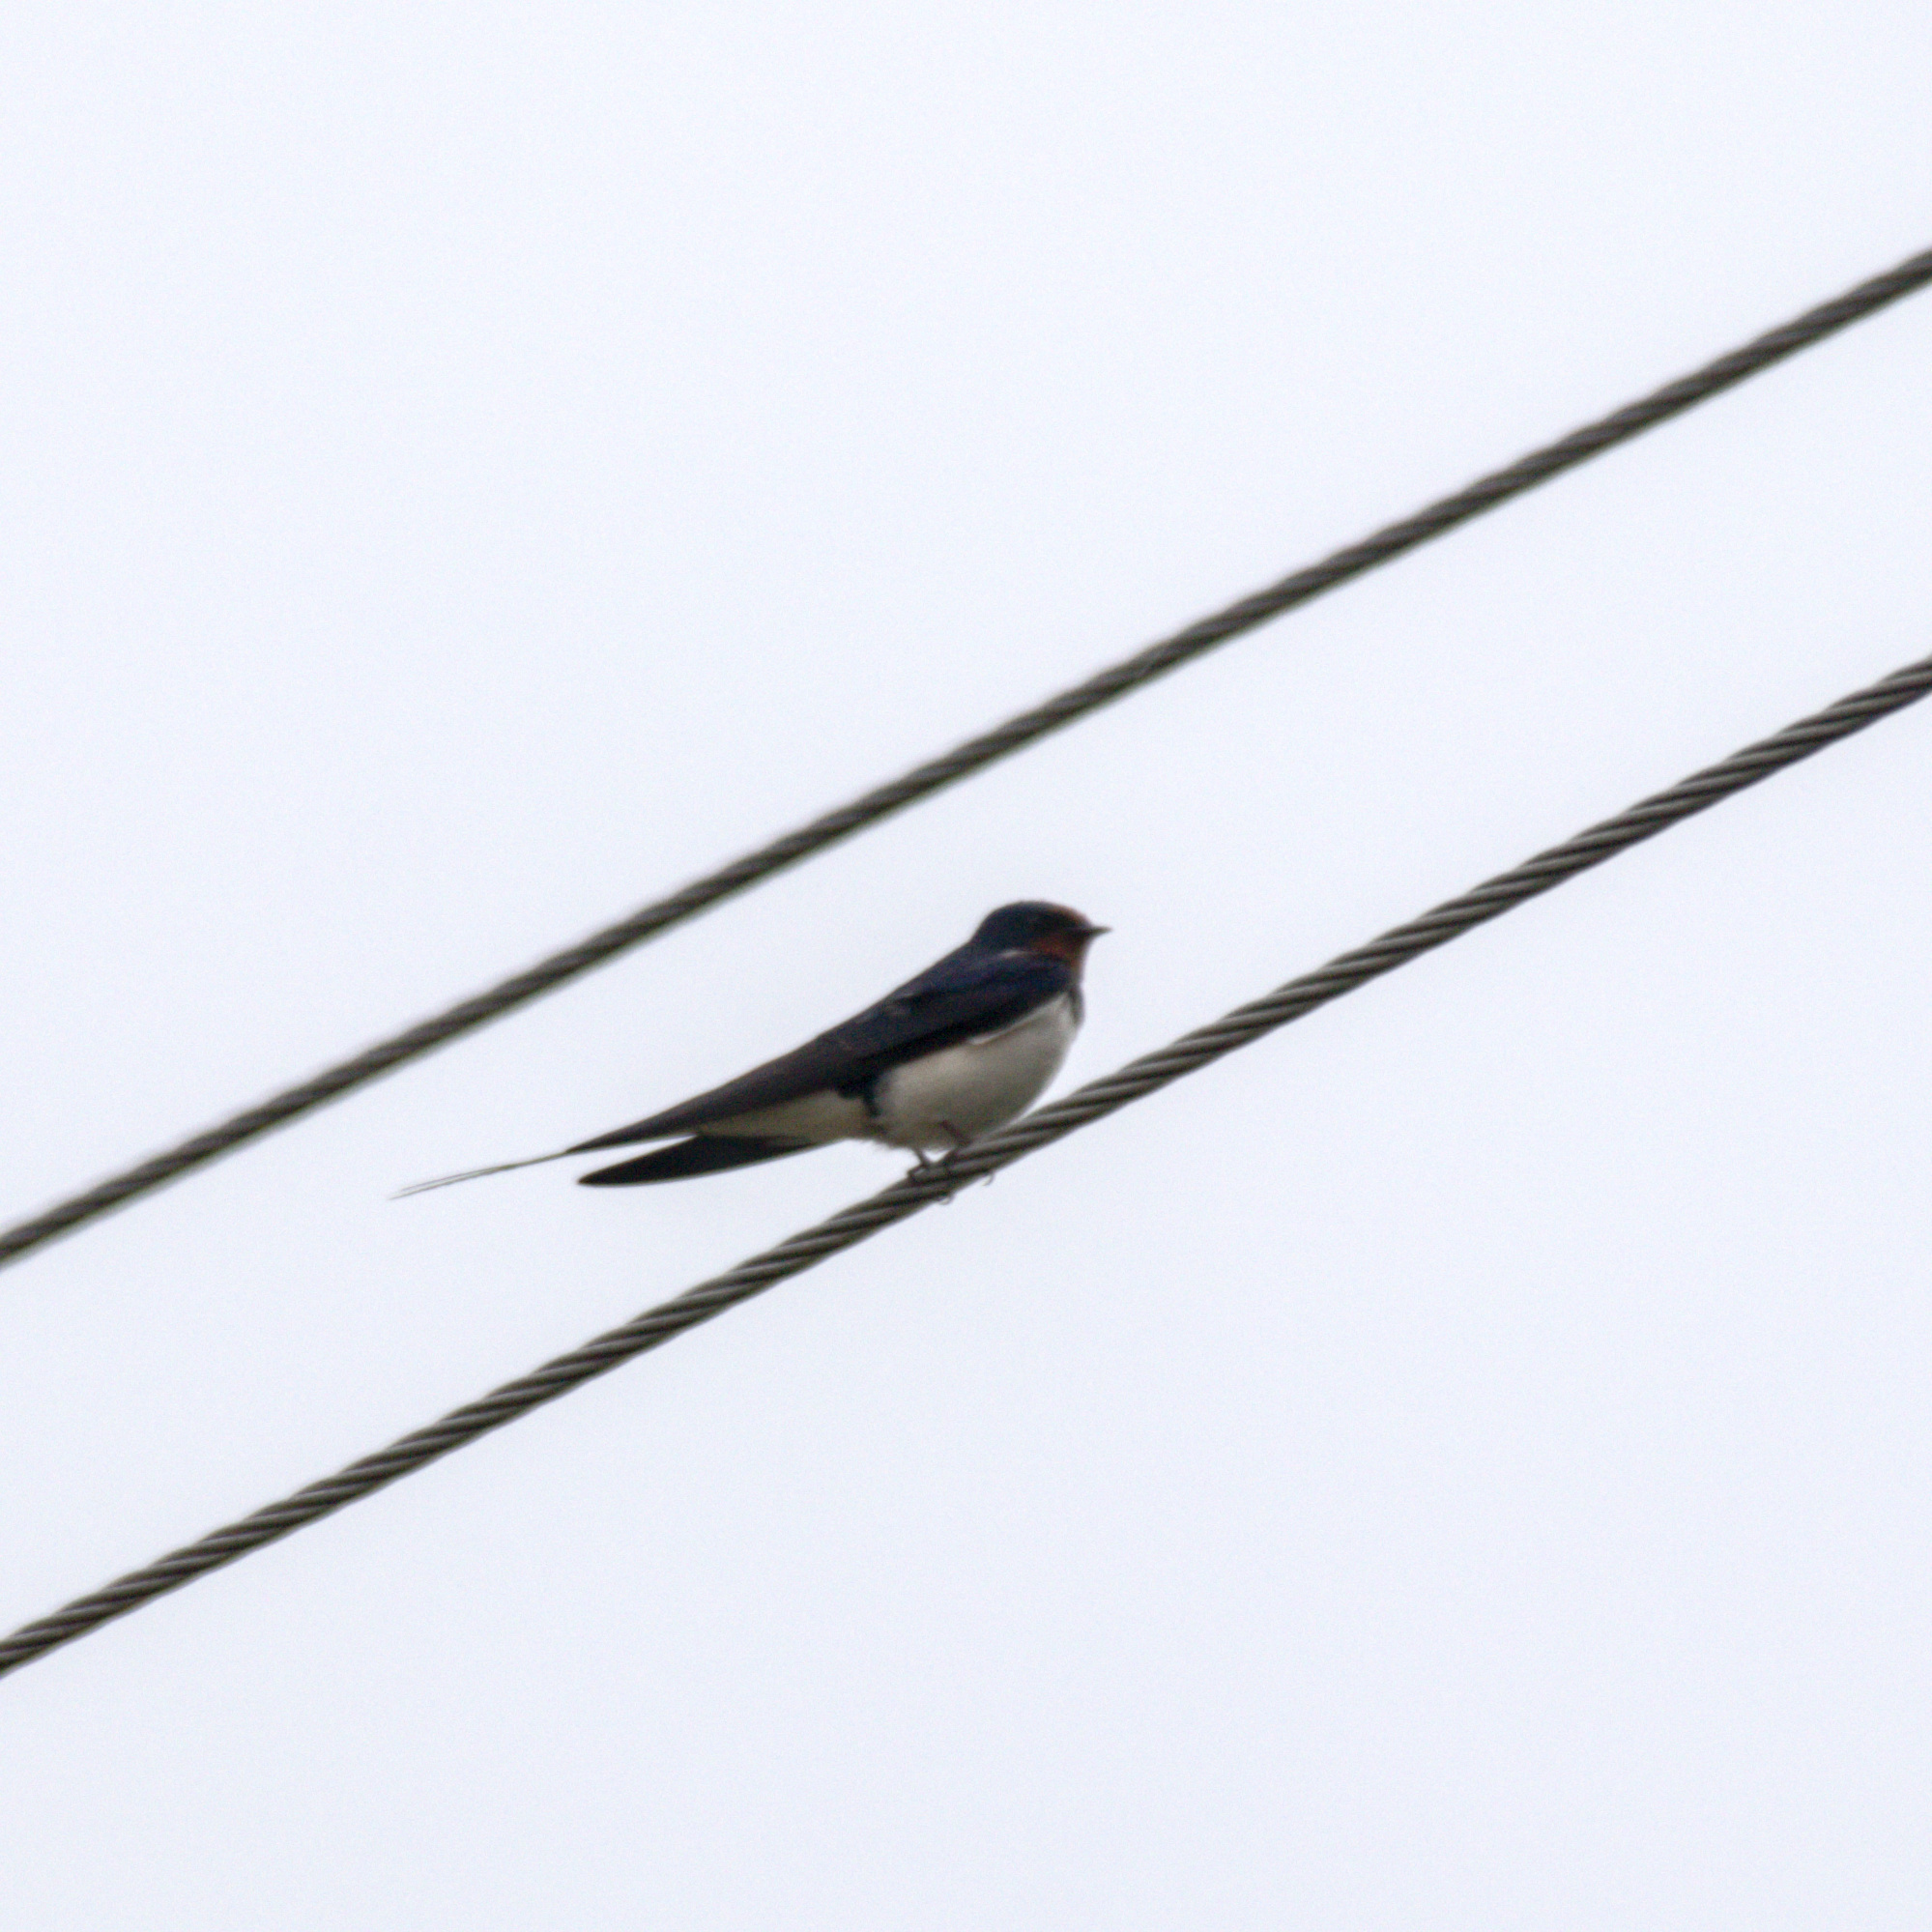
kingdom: Animalia
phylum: Chordata
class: Aves
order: Passeriformes
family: Hirundinidae
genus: Hirundo
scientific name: Hirundo rustica
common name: Barn swallow
